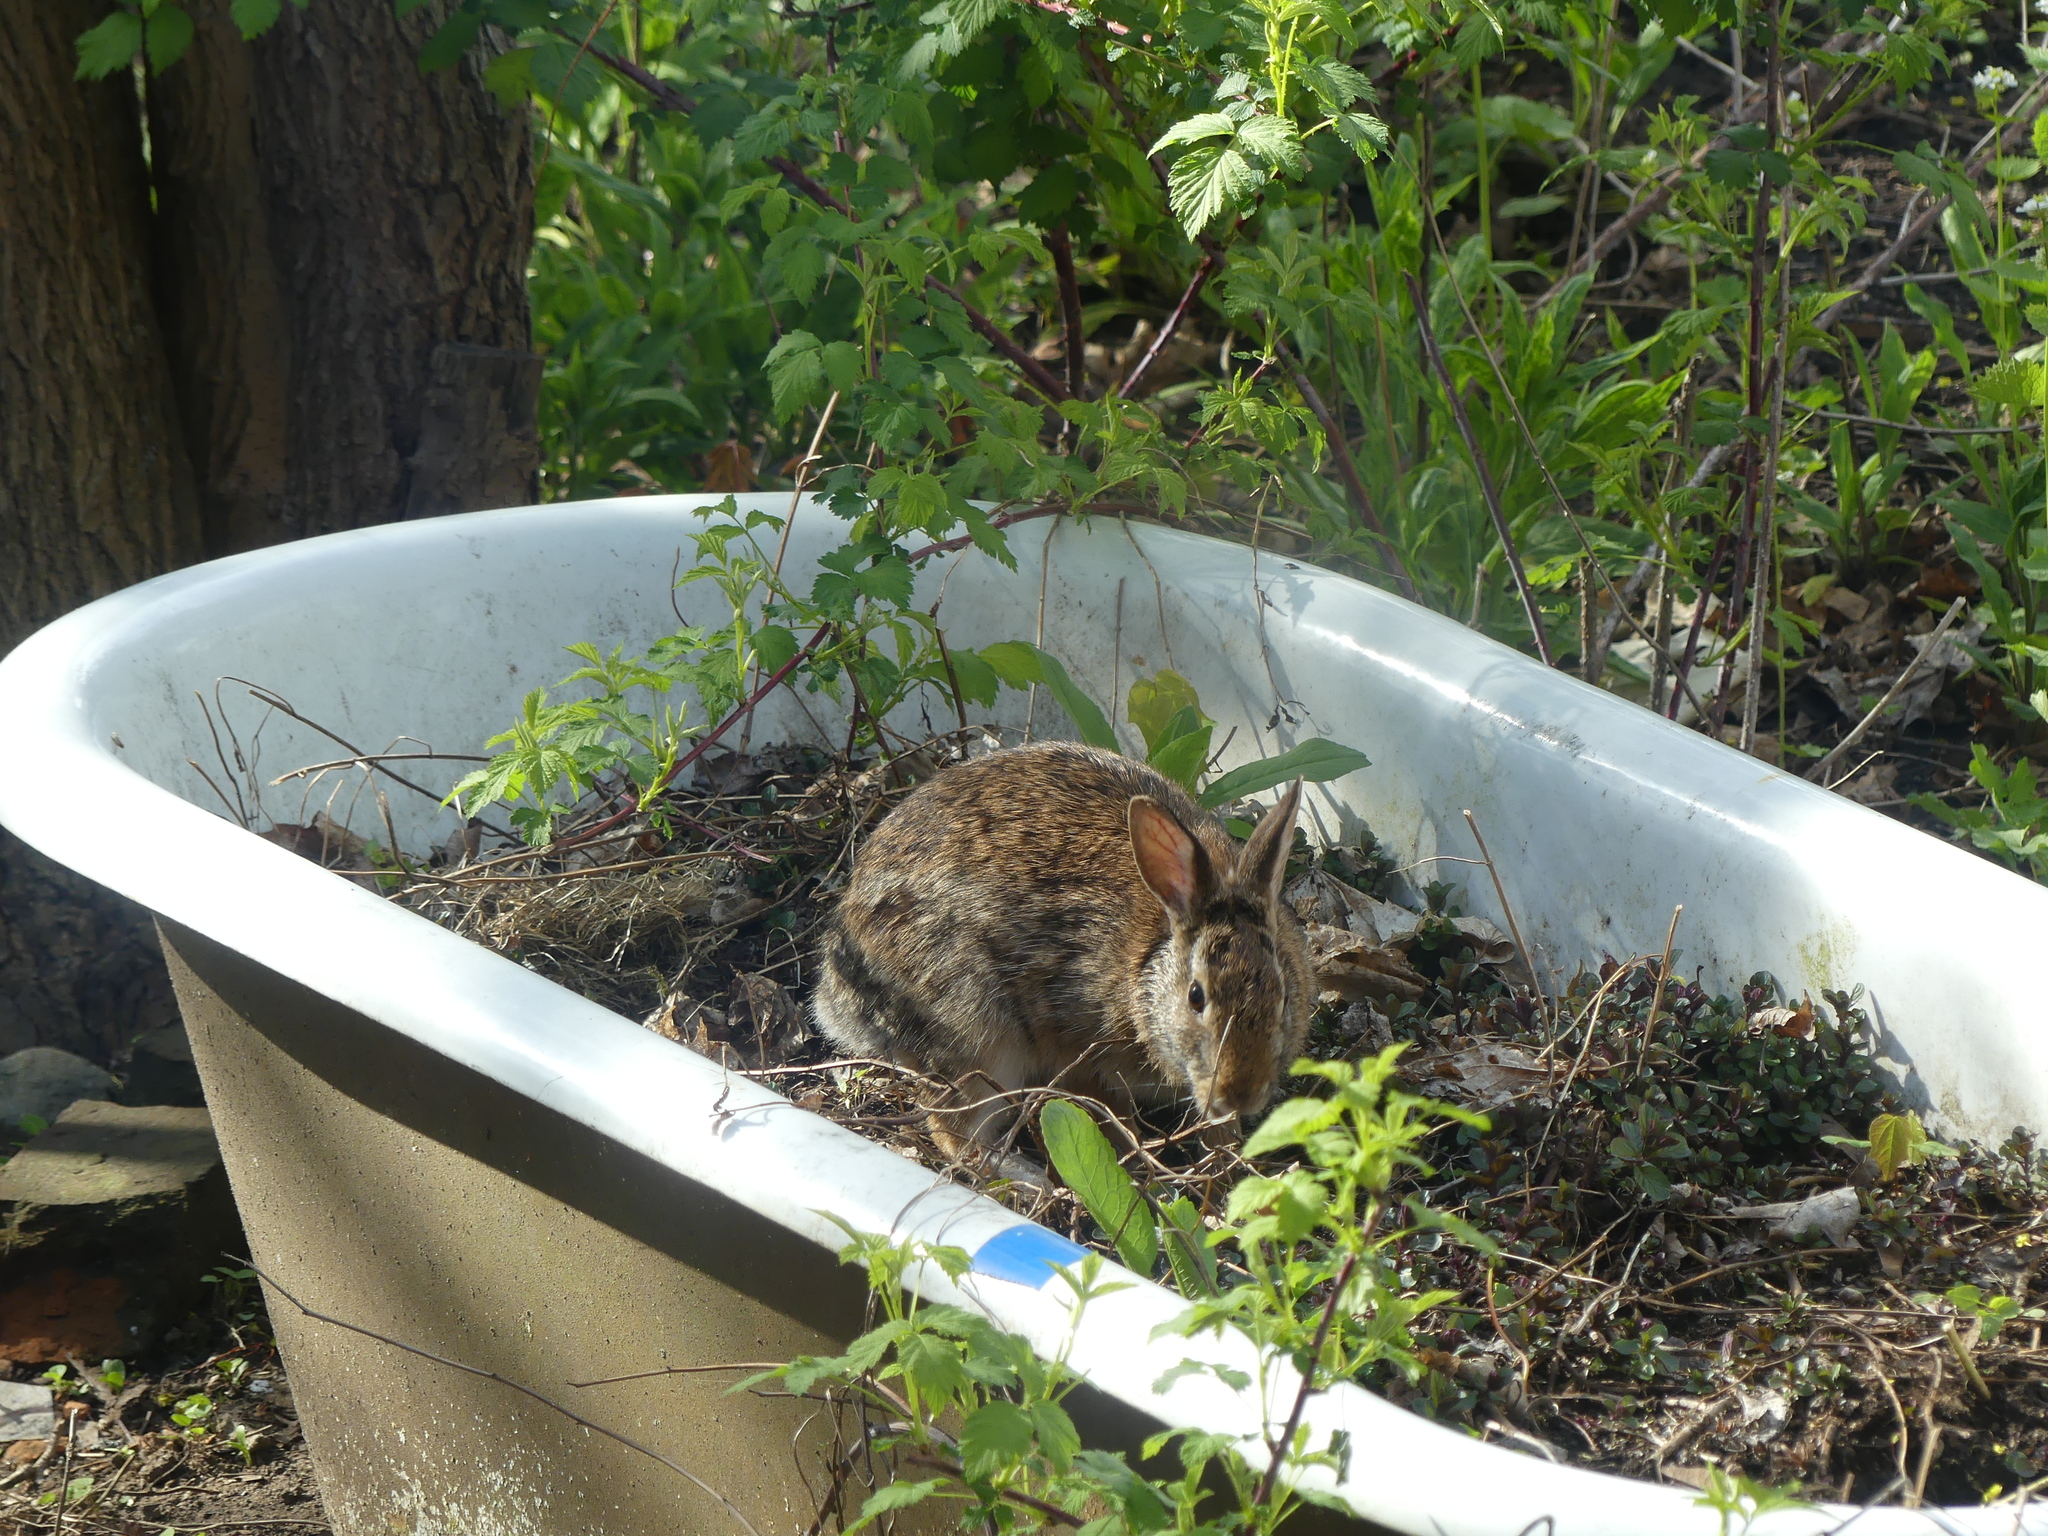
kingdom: Animalia
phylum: Chordata
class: Mammalia
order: Lagomorpha
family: Leporidae
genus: Sylvilagus
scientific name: Sylvilagus floridanus
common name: Eastern cottontail
